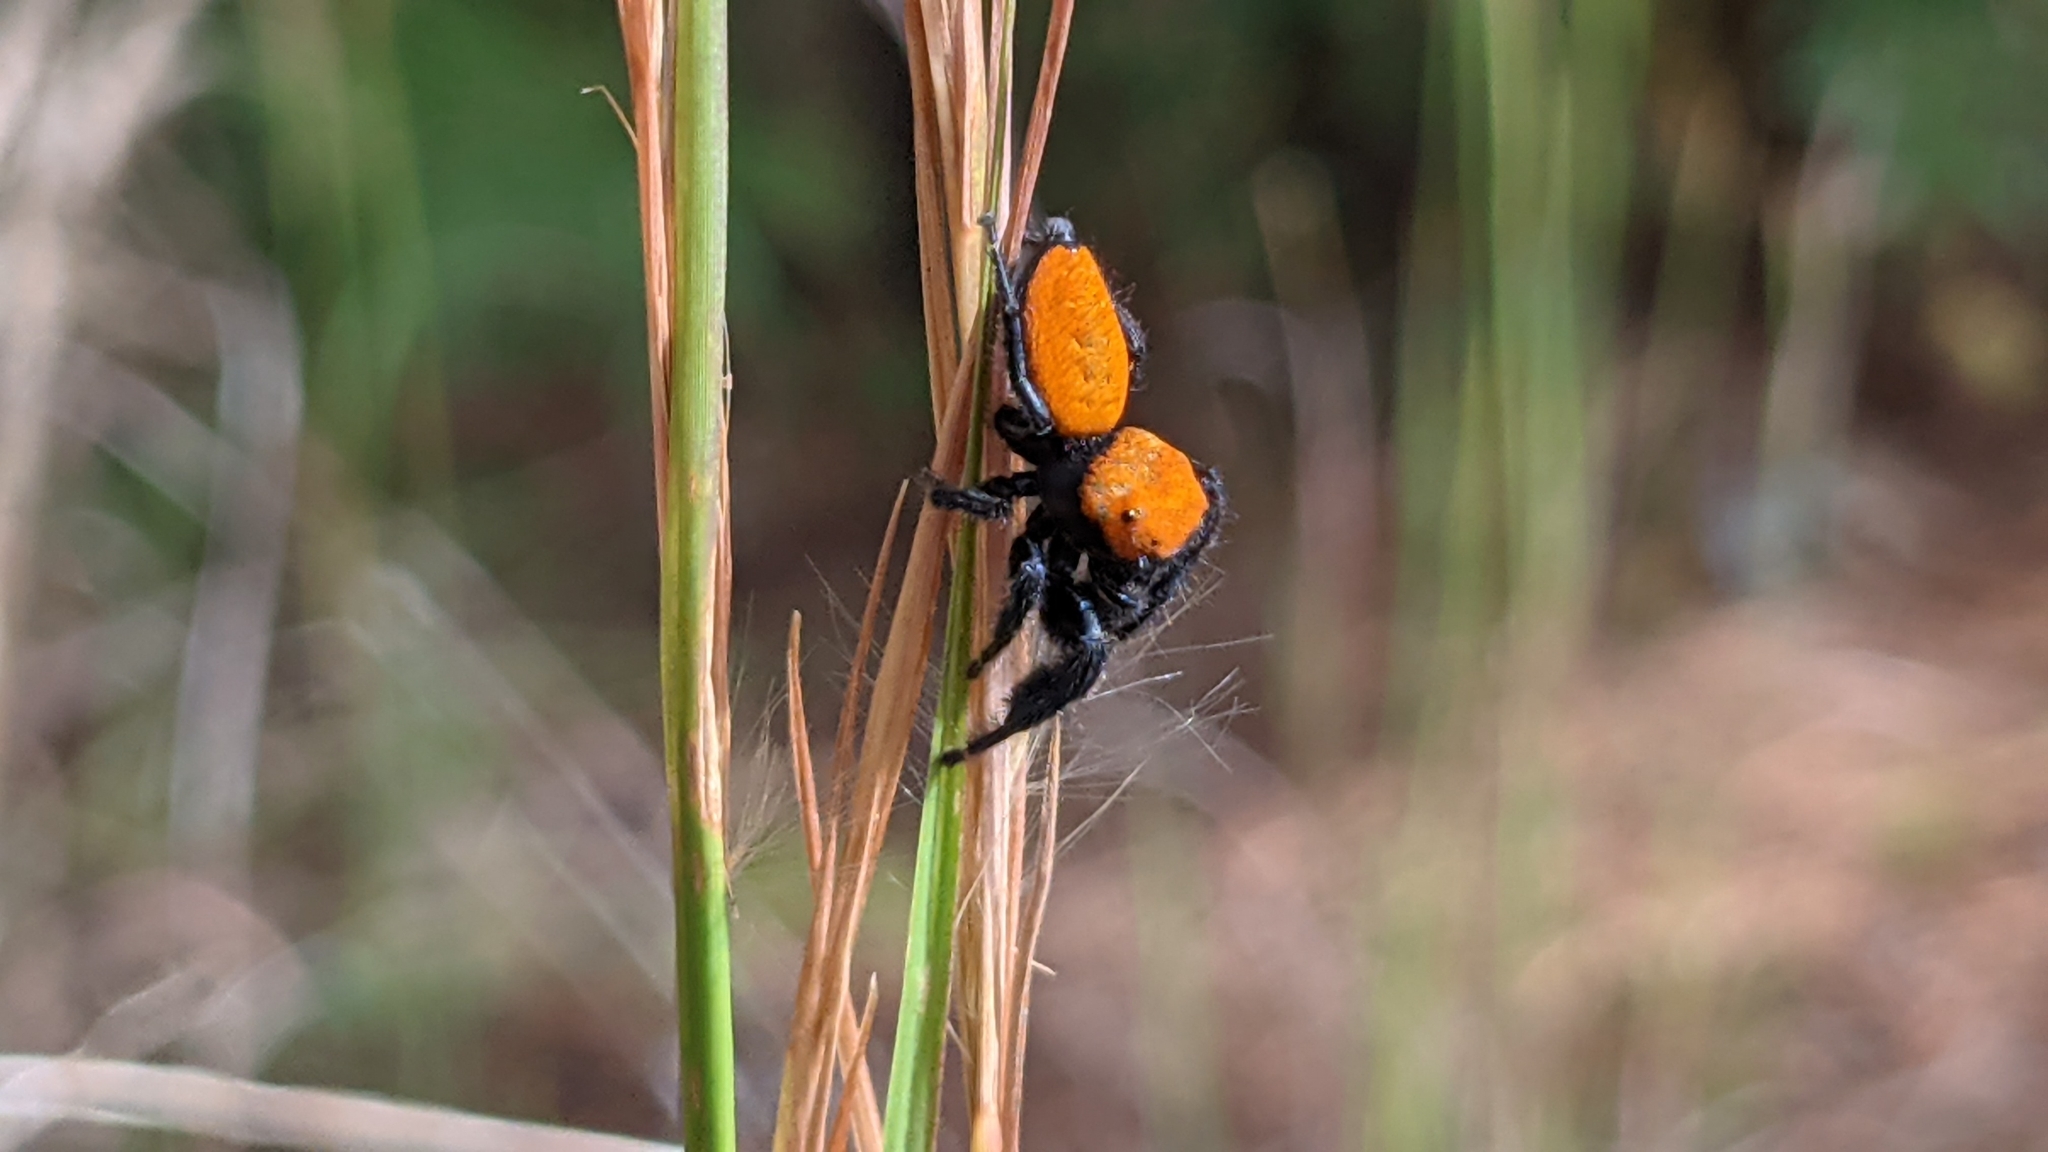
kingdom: Animalia
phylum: Arthropoda
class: Arachnida
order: Araneae
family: Salticidae
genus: Phidippus
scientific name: Phidippus cardinalis
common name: Cardinal jumper
